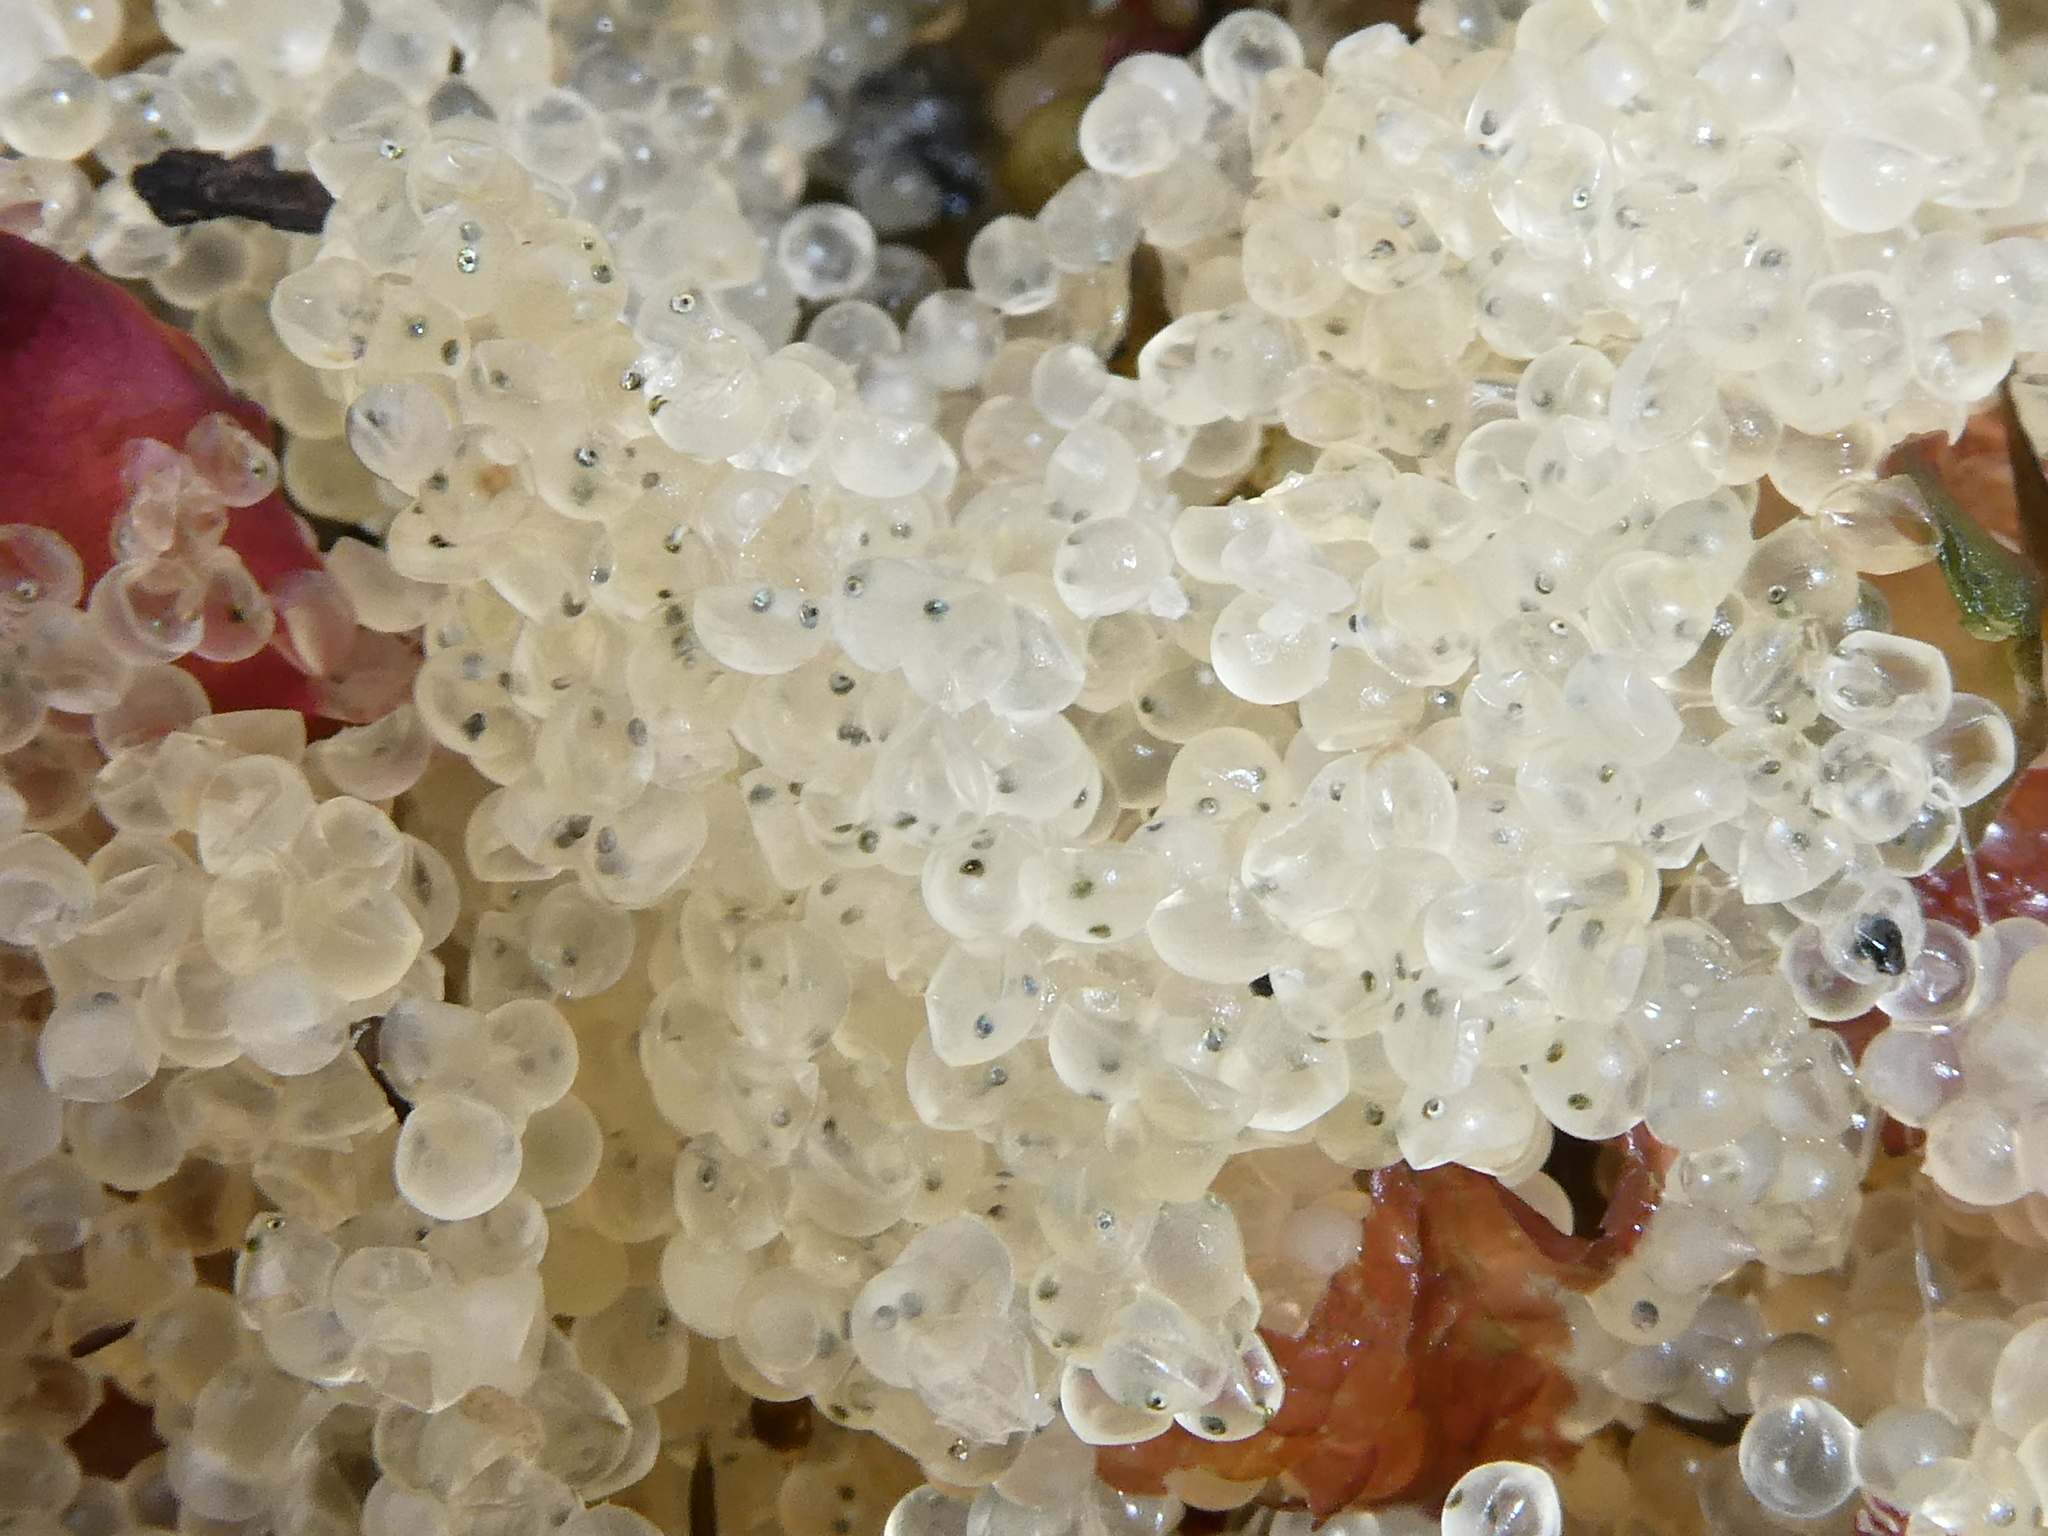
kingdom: Animalia
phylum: Chordata
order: Clupeiformes
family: Clupeidae
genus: Clupea
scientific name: Clupea pallasii
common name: Pacific herring
